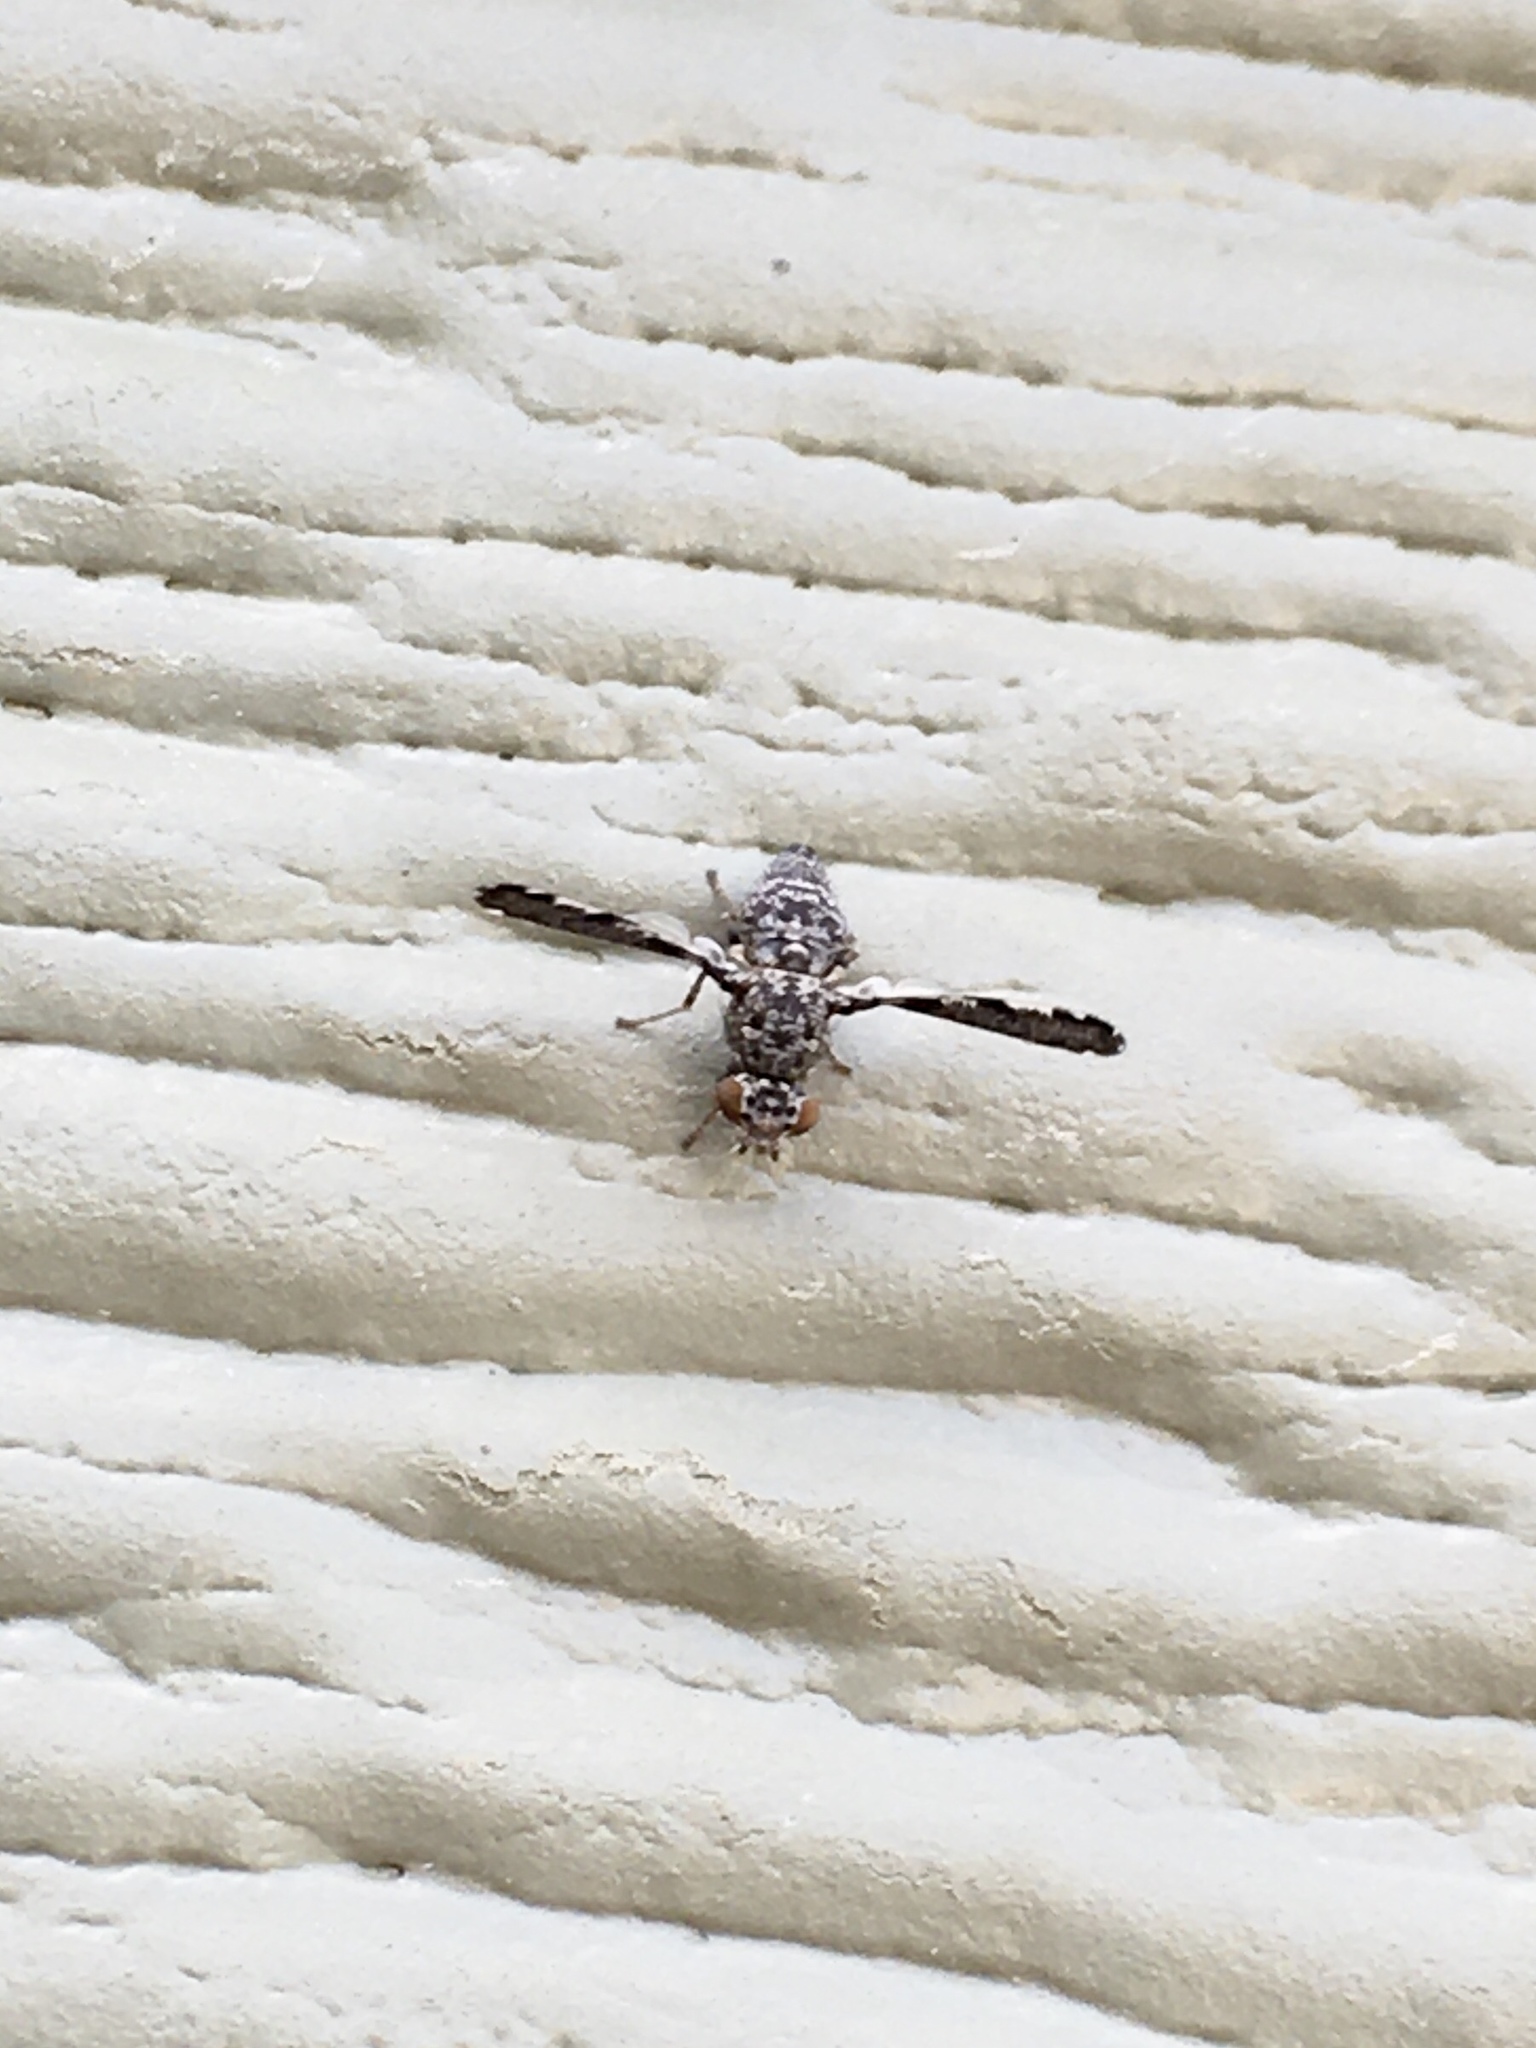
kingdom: Animalia
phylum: Arthropoda
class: Insecta
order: Diptera
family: Ulidiidae
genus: Callopistromyia
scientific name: Callopistromyia strigula
